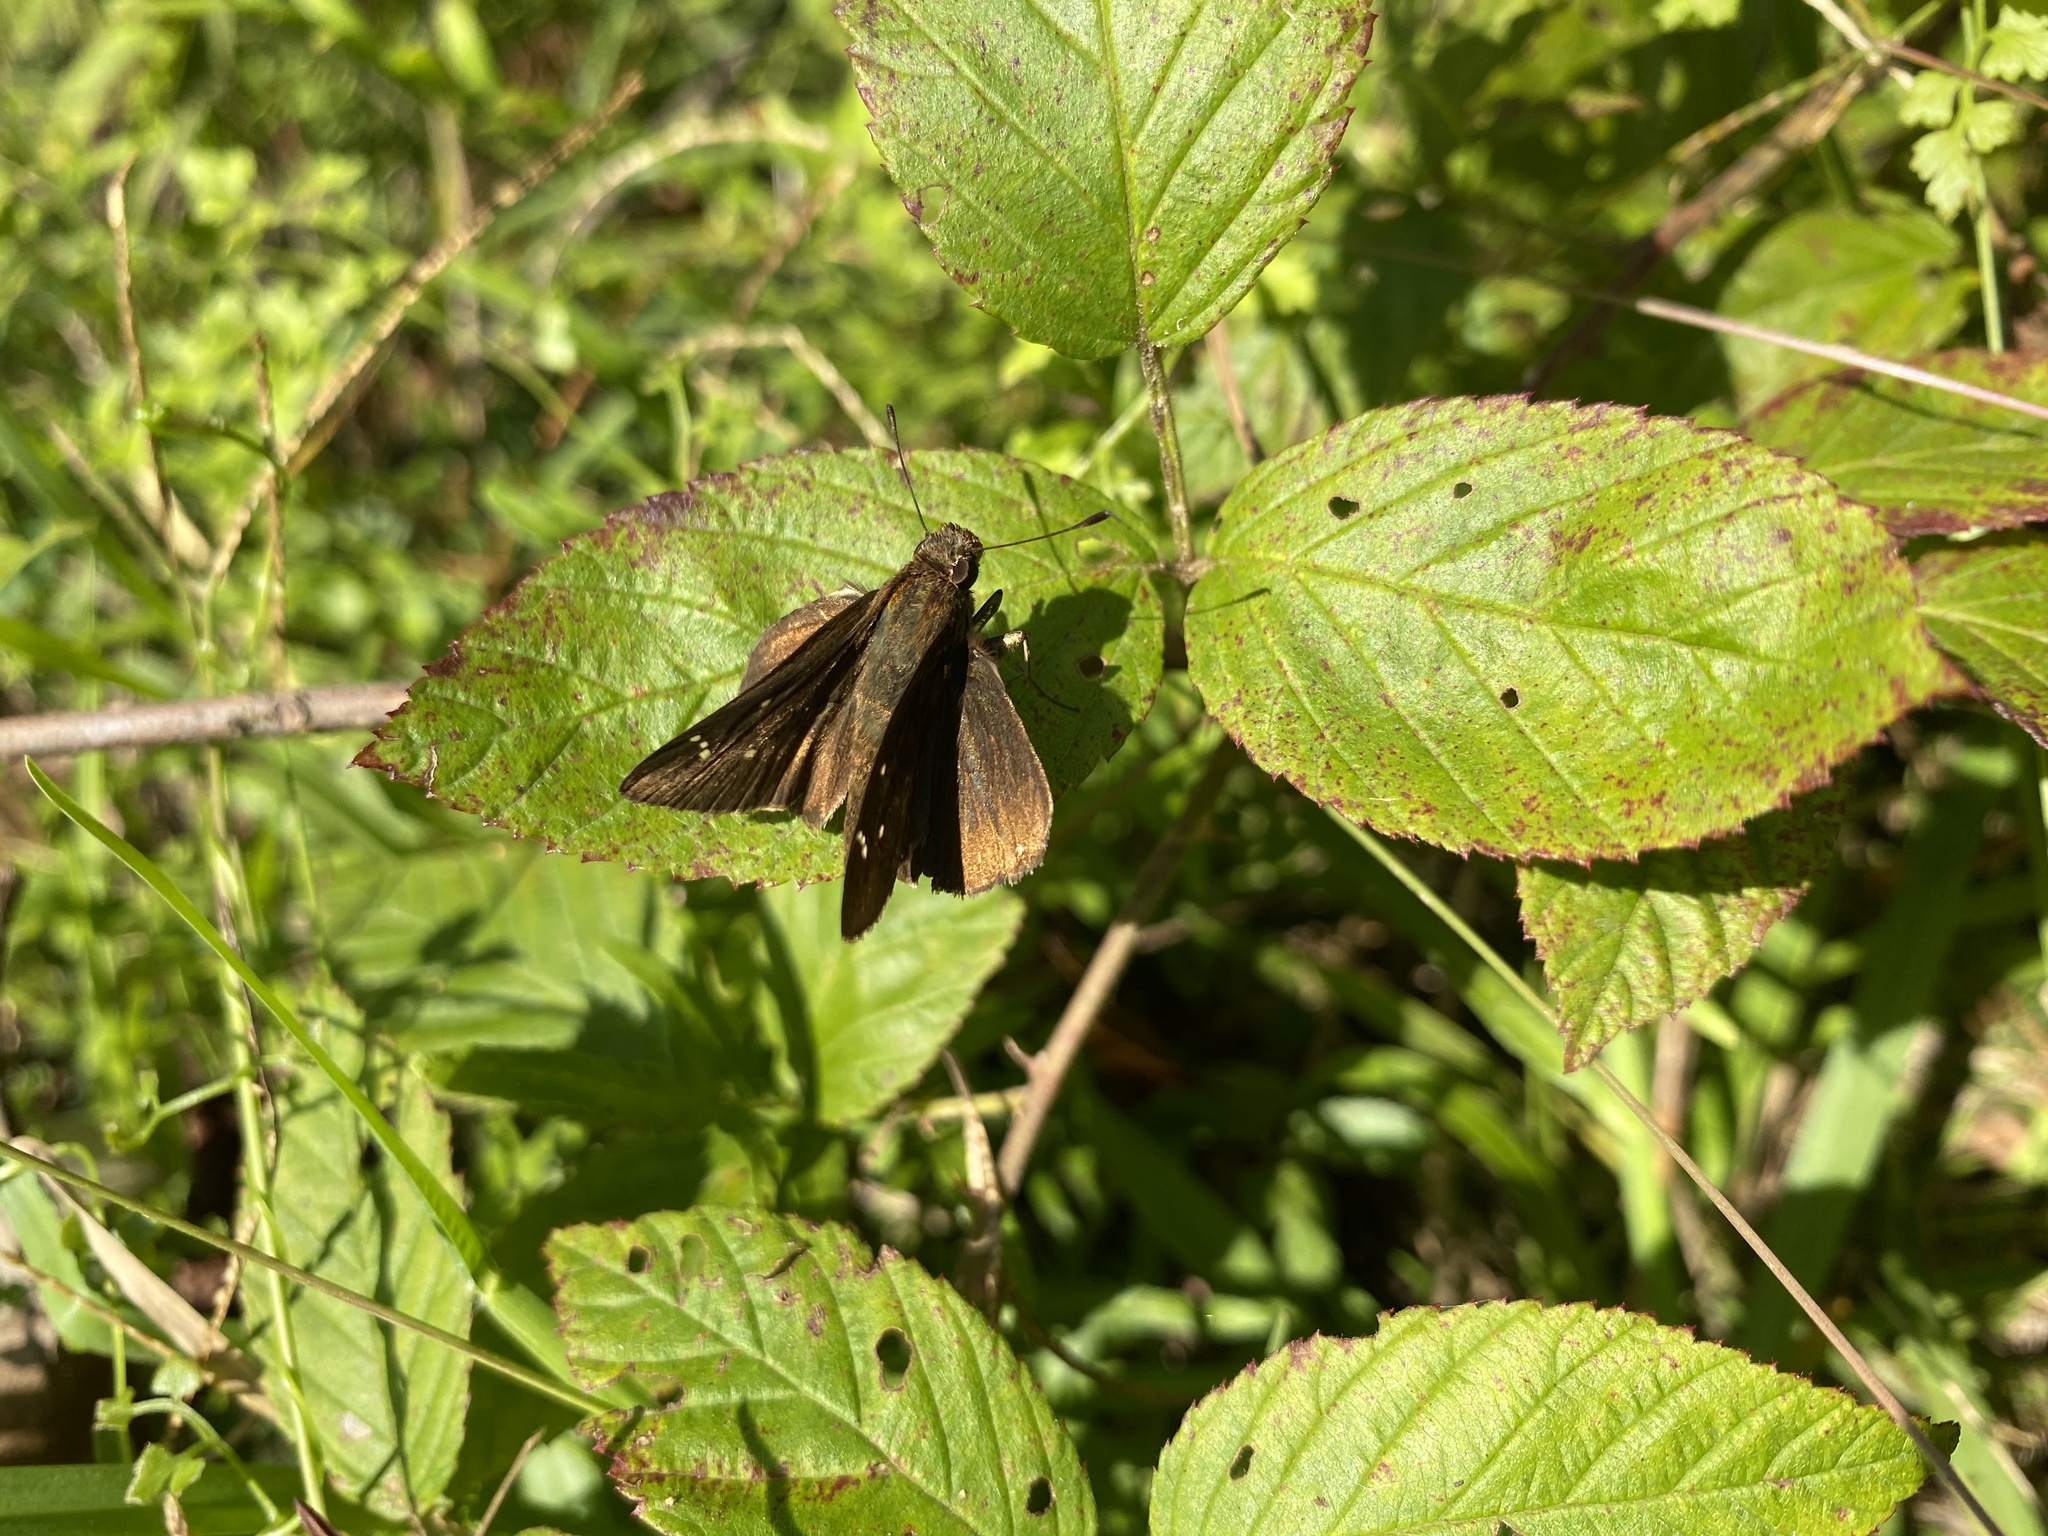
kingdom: Animalia
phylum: Arthropoda
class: Insecta
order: Lepidoptera
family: Hesperiidae
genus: Lerema
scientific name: Lerema accius
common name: Clouded skipper
